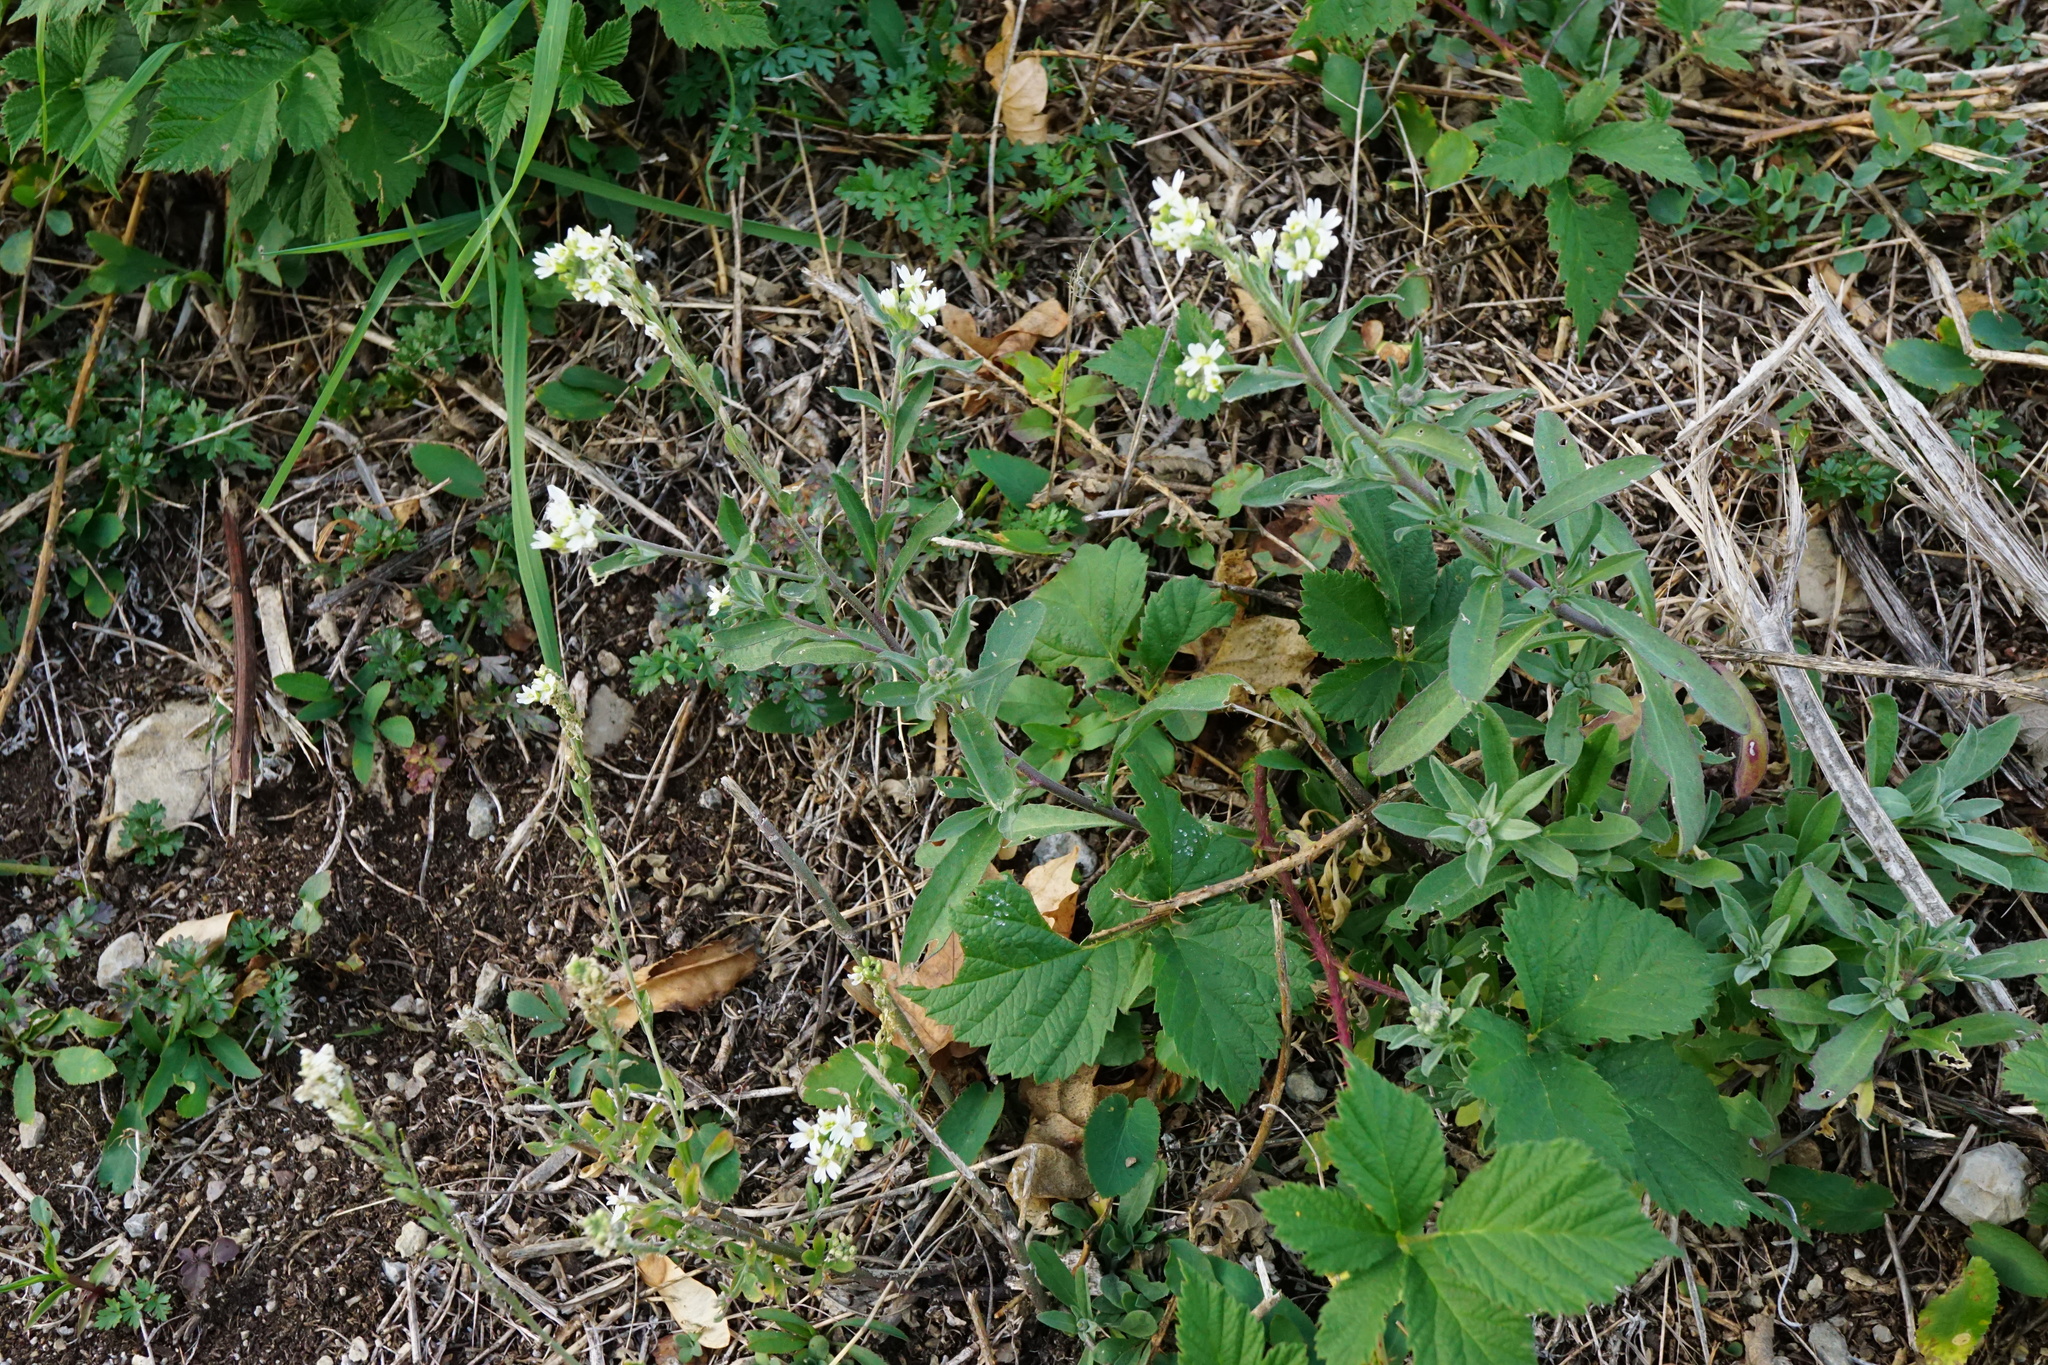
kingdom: Plantae
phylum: Tracheophyta
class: Magnoliopsida
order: Brassicales
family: Brassicaceae
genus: Berteroa
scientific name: Berteroa incana
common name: Hoary alison
